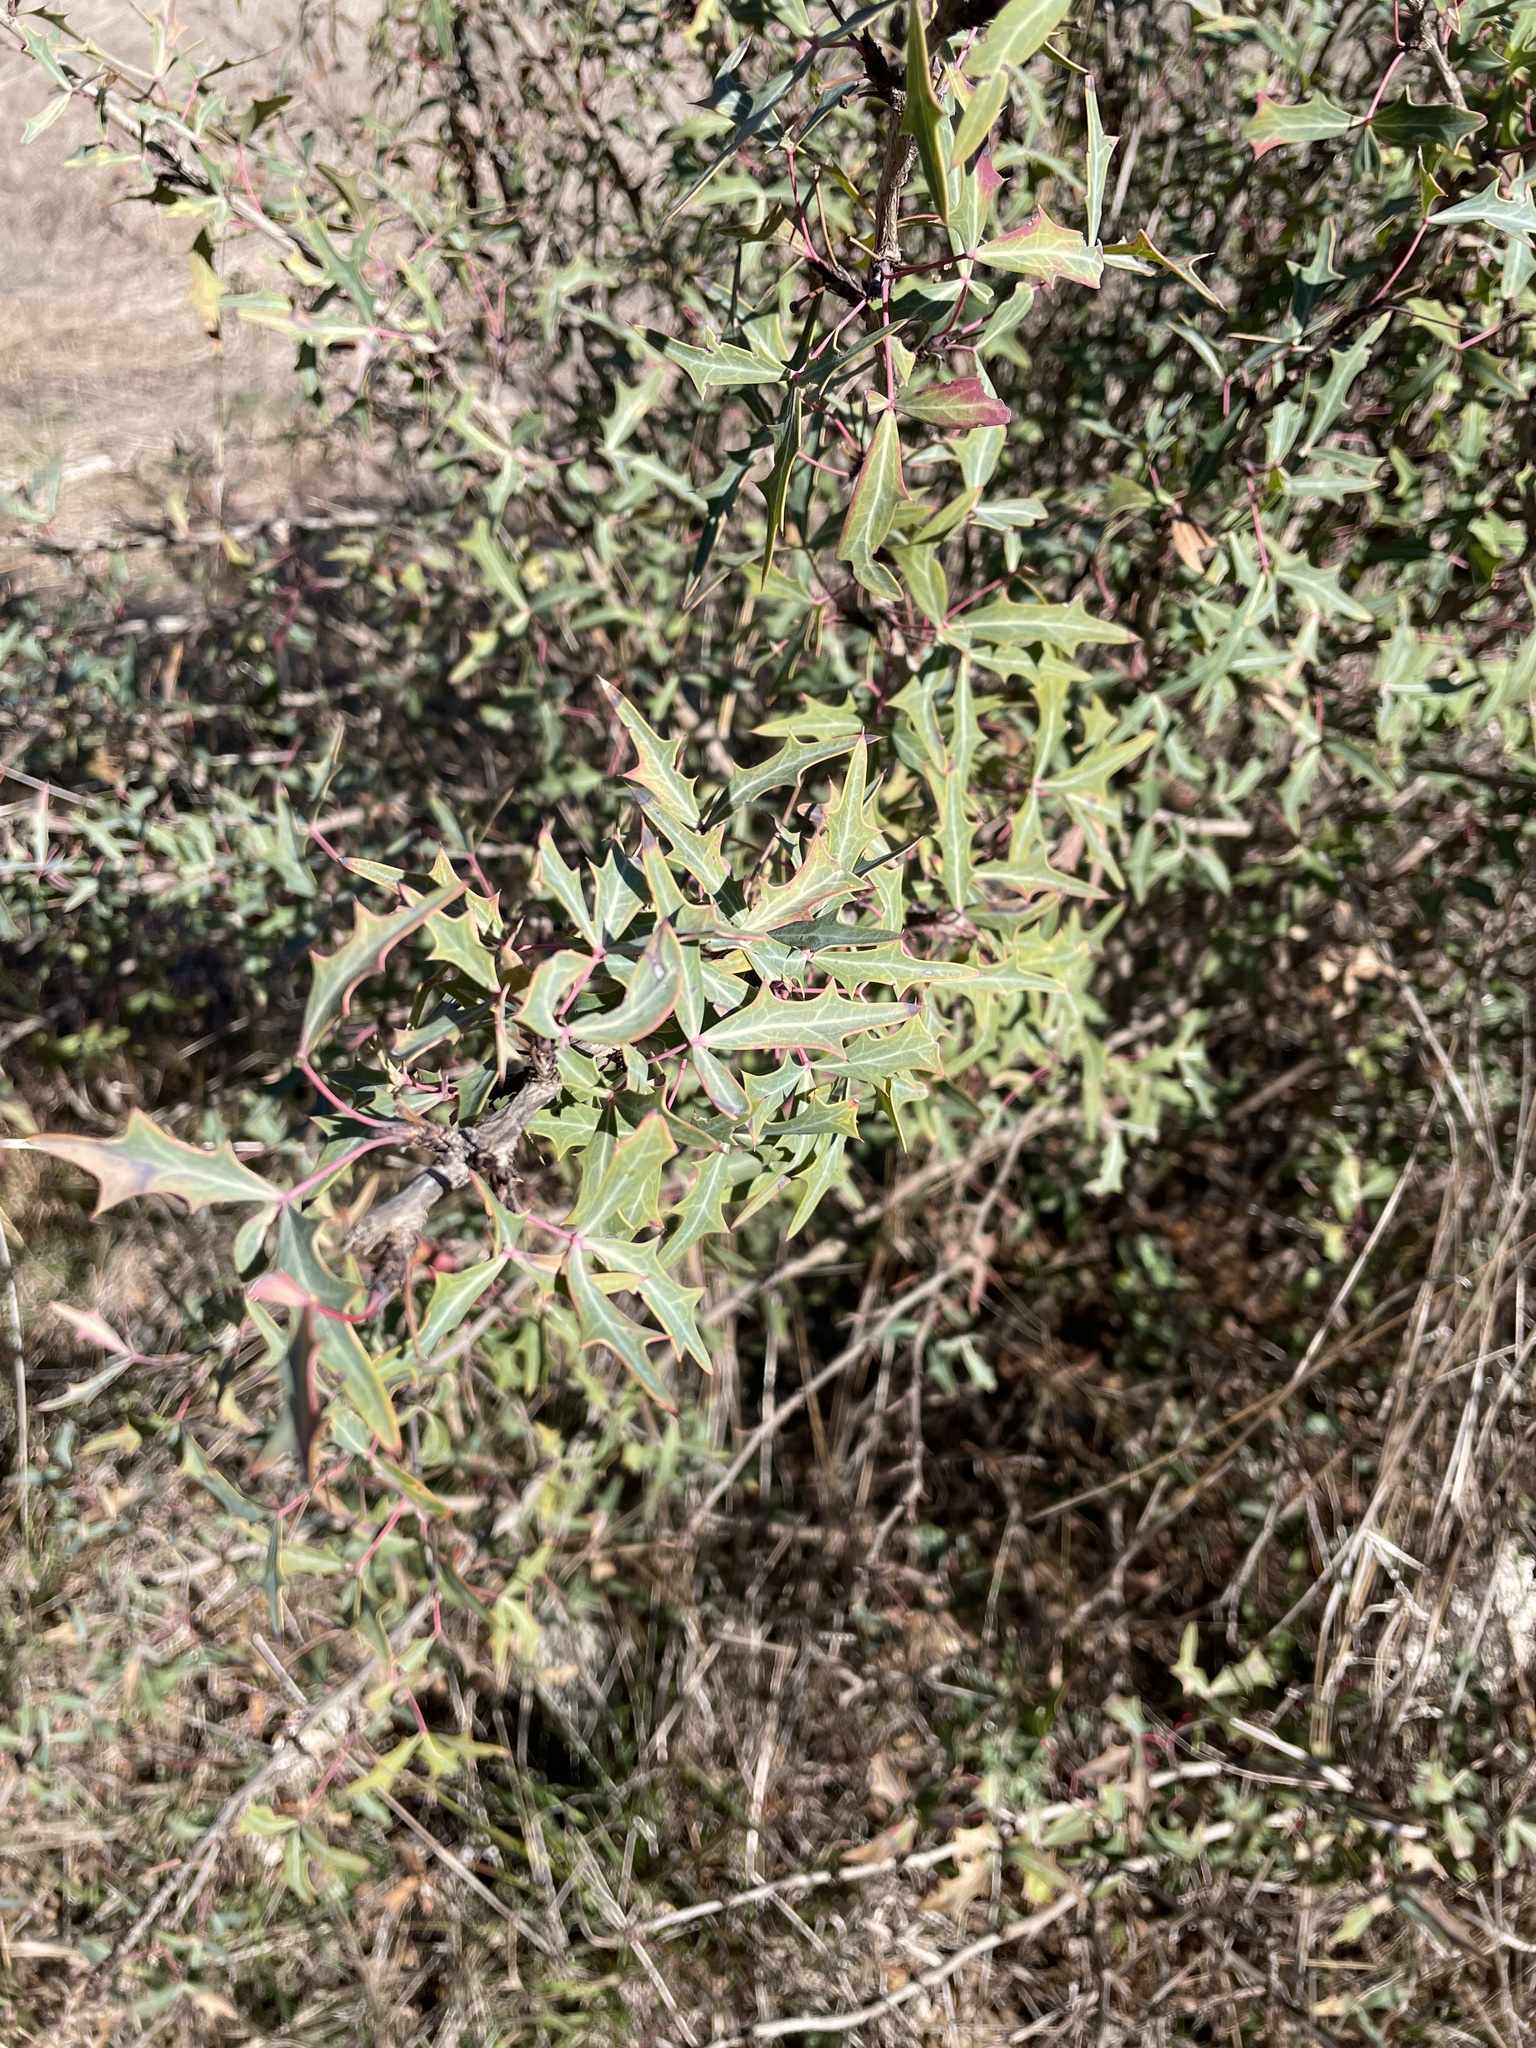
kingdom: Plantae
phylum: Tracheophyta
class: Magnoliopsida
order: Ranunculales
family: Berberidaceae
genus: Alloberberis
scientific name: Alloberberis trifoliolata
